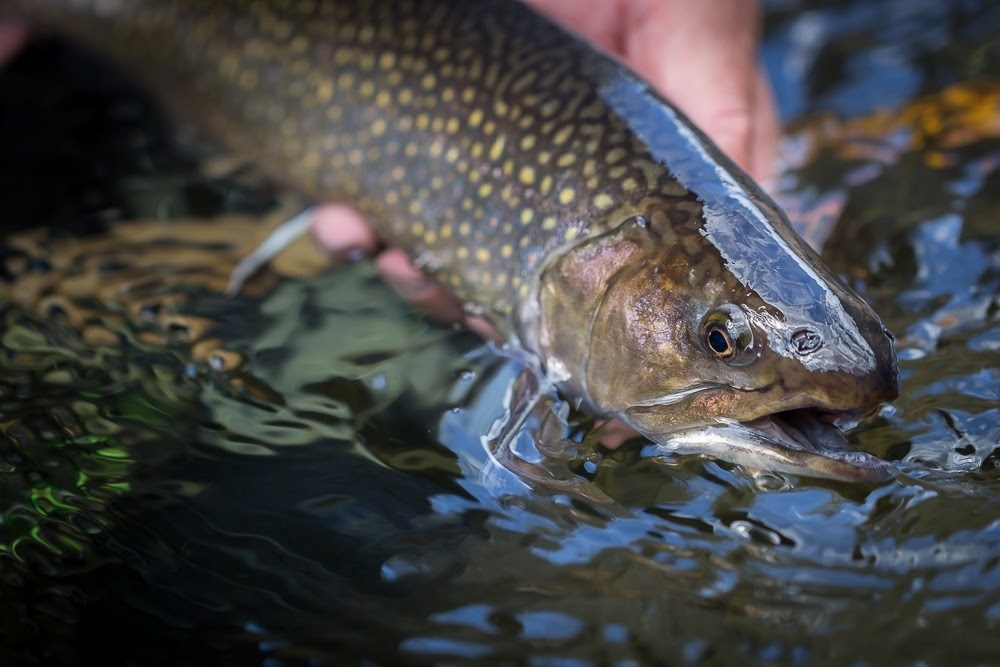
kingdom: Animalia
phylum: Chordata
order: Salmoniformes
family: Salmonidae
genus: Salvelinus
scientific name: Salvelinus fontinalis
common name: Brook trout
